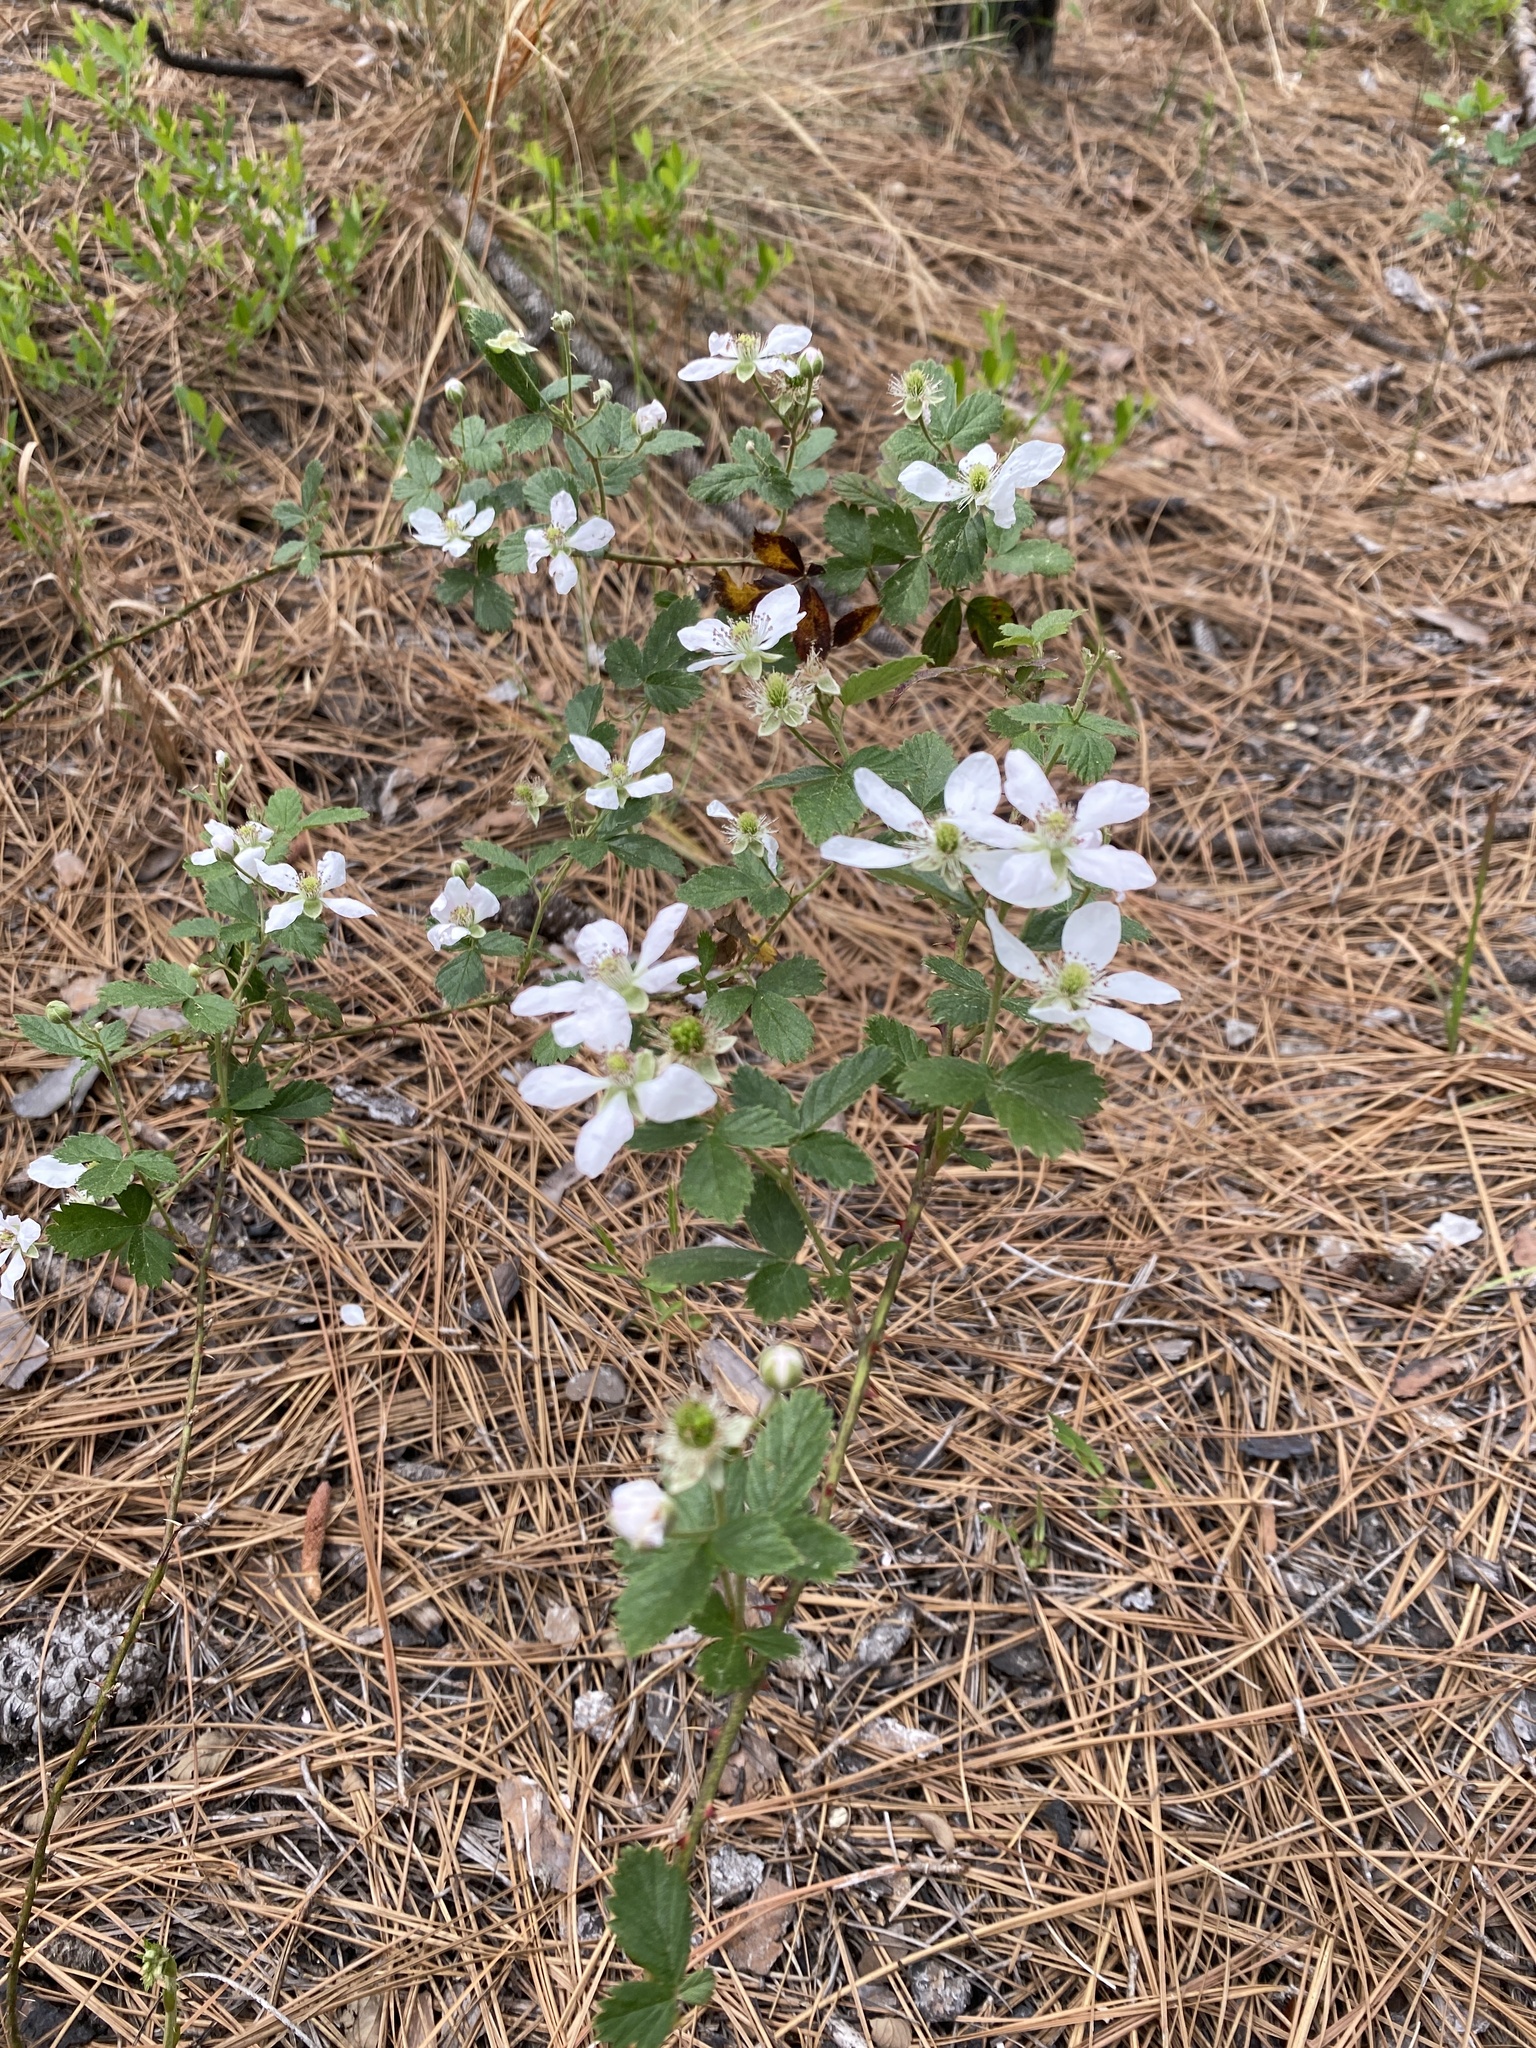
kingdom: Plantae
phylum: Tracheophyta
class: Magnoliopsida
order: Rosales
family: Rosaceae
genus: Rubus
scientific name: Rubus cuneifolius
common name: American bramble
